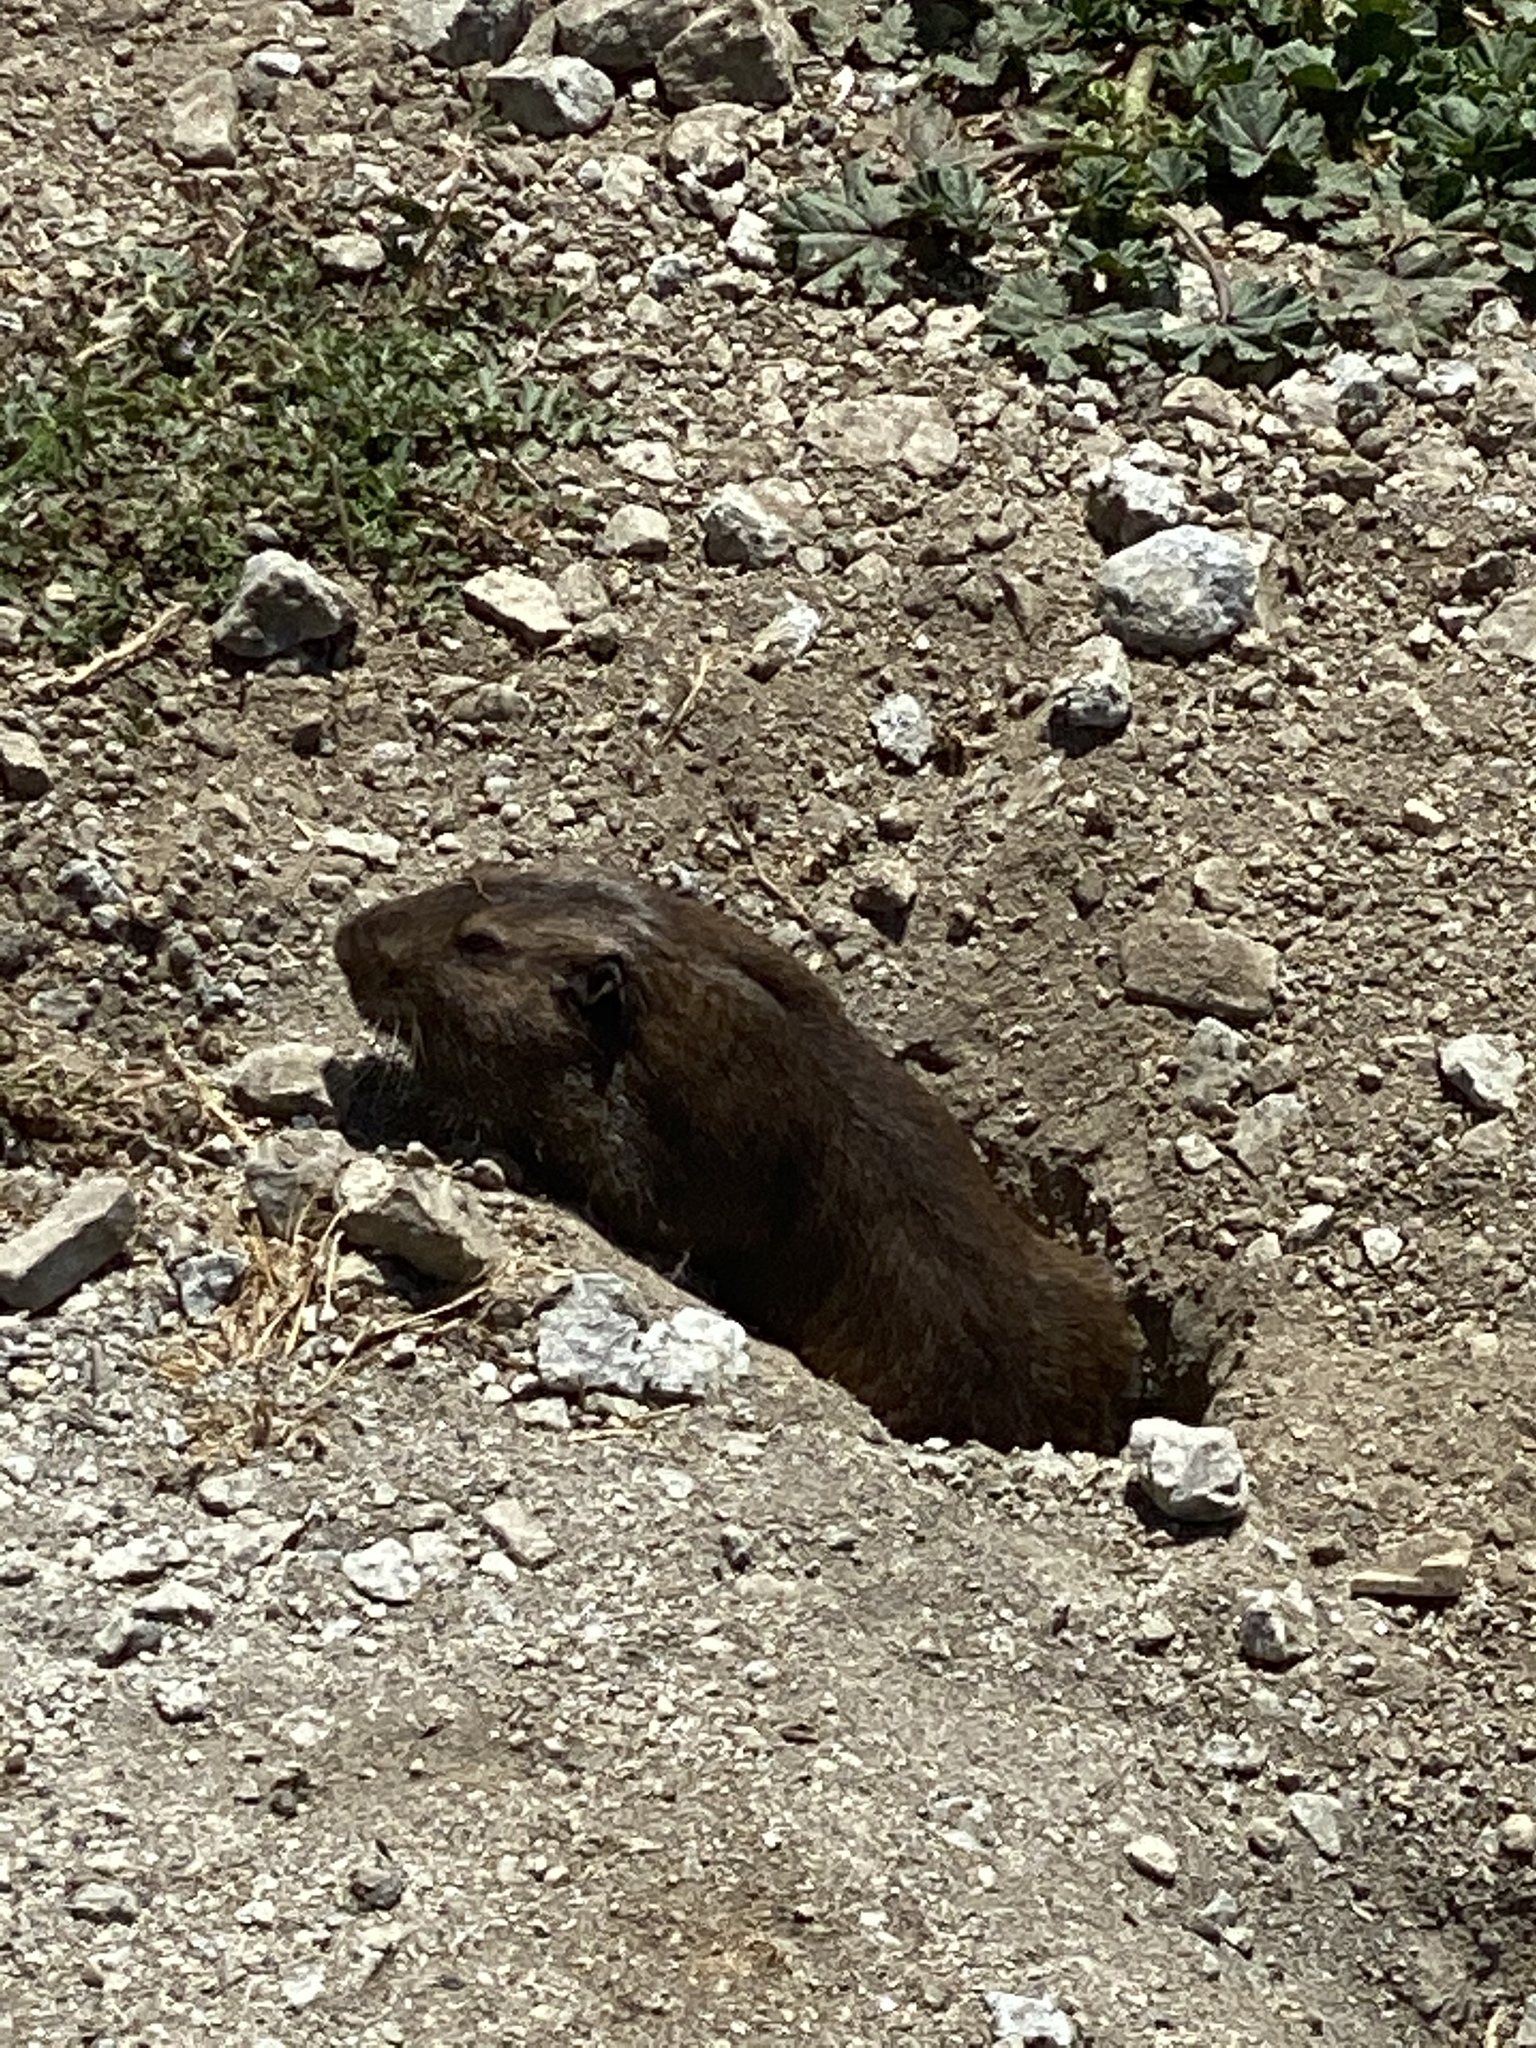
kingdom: Animalia
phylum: Chordata
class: Mammalia
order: Rodentia
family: Geomyidae
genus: Thomomys
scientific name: Thomomys bottae
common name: Botta's pocket gopher
